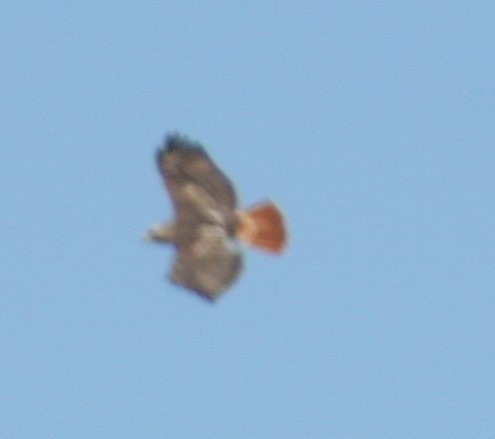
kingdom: Animalia
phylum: Chordata
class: Aves
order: Accipitriformes
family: Accipitridae
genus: Buteo
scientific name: Buteo jamaicensis
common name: Red-tailed hawk
